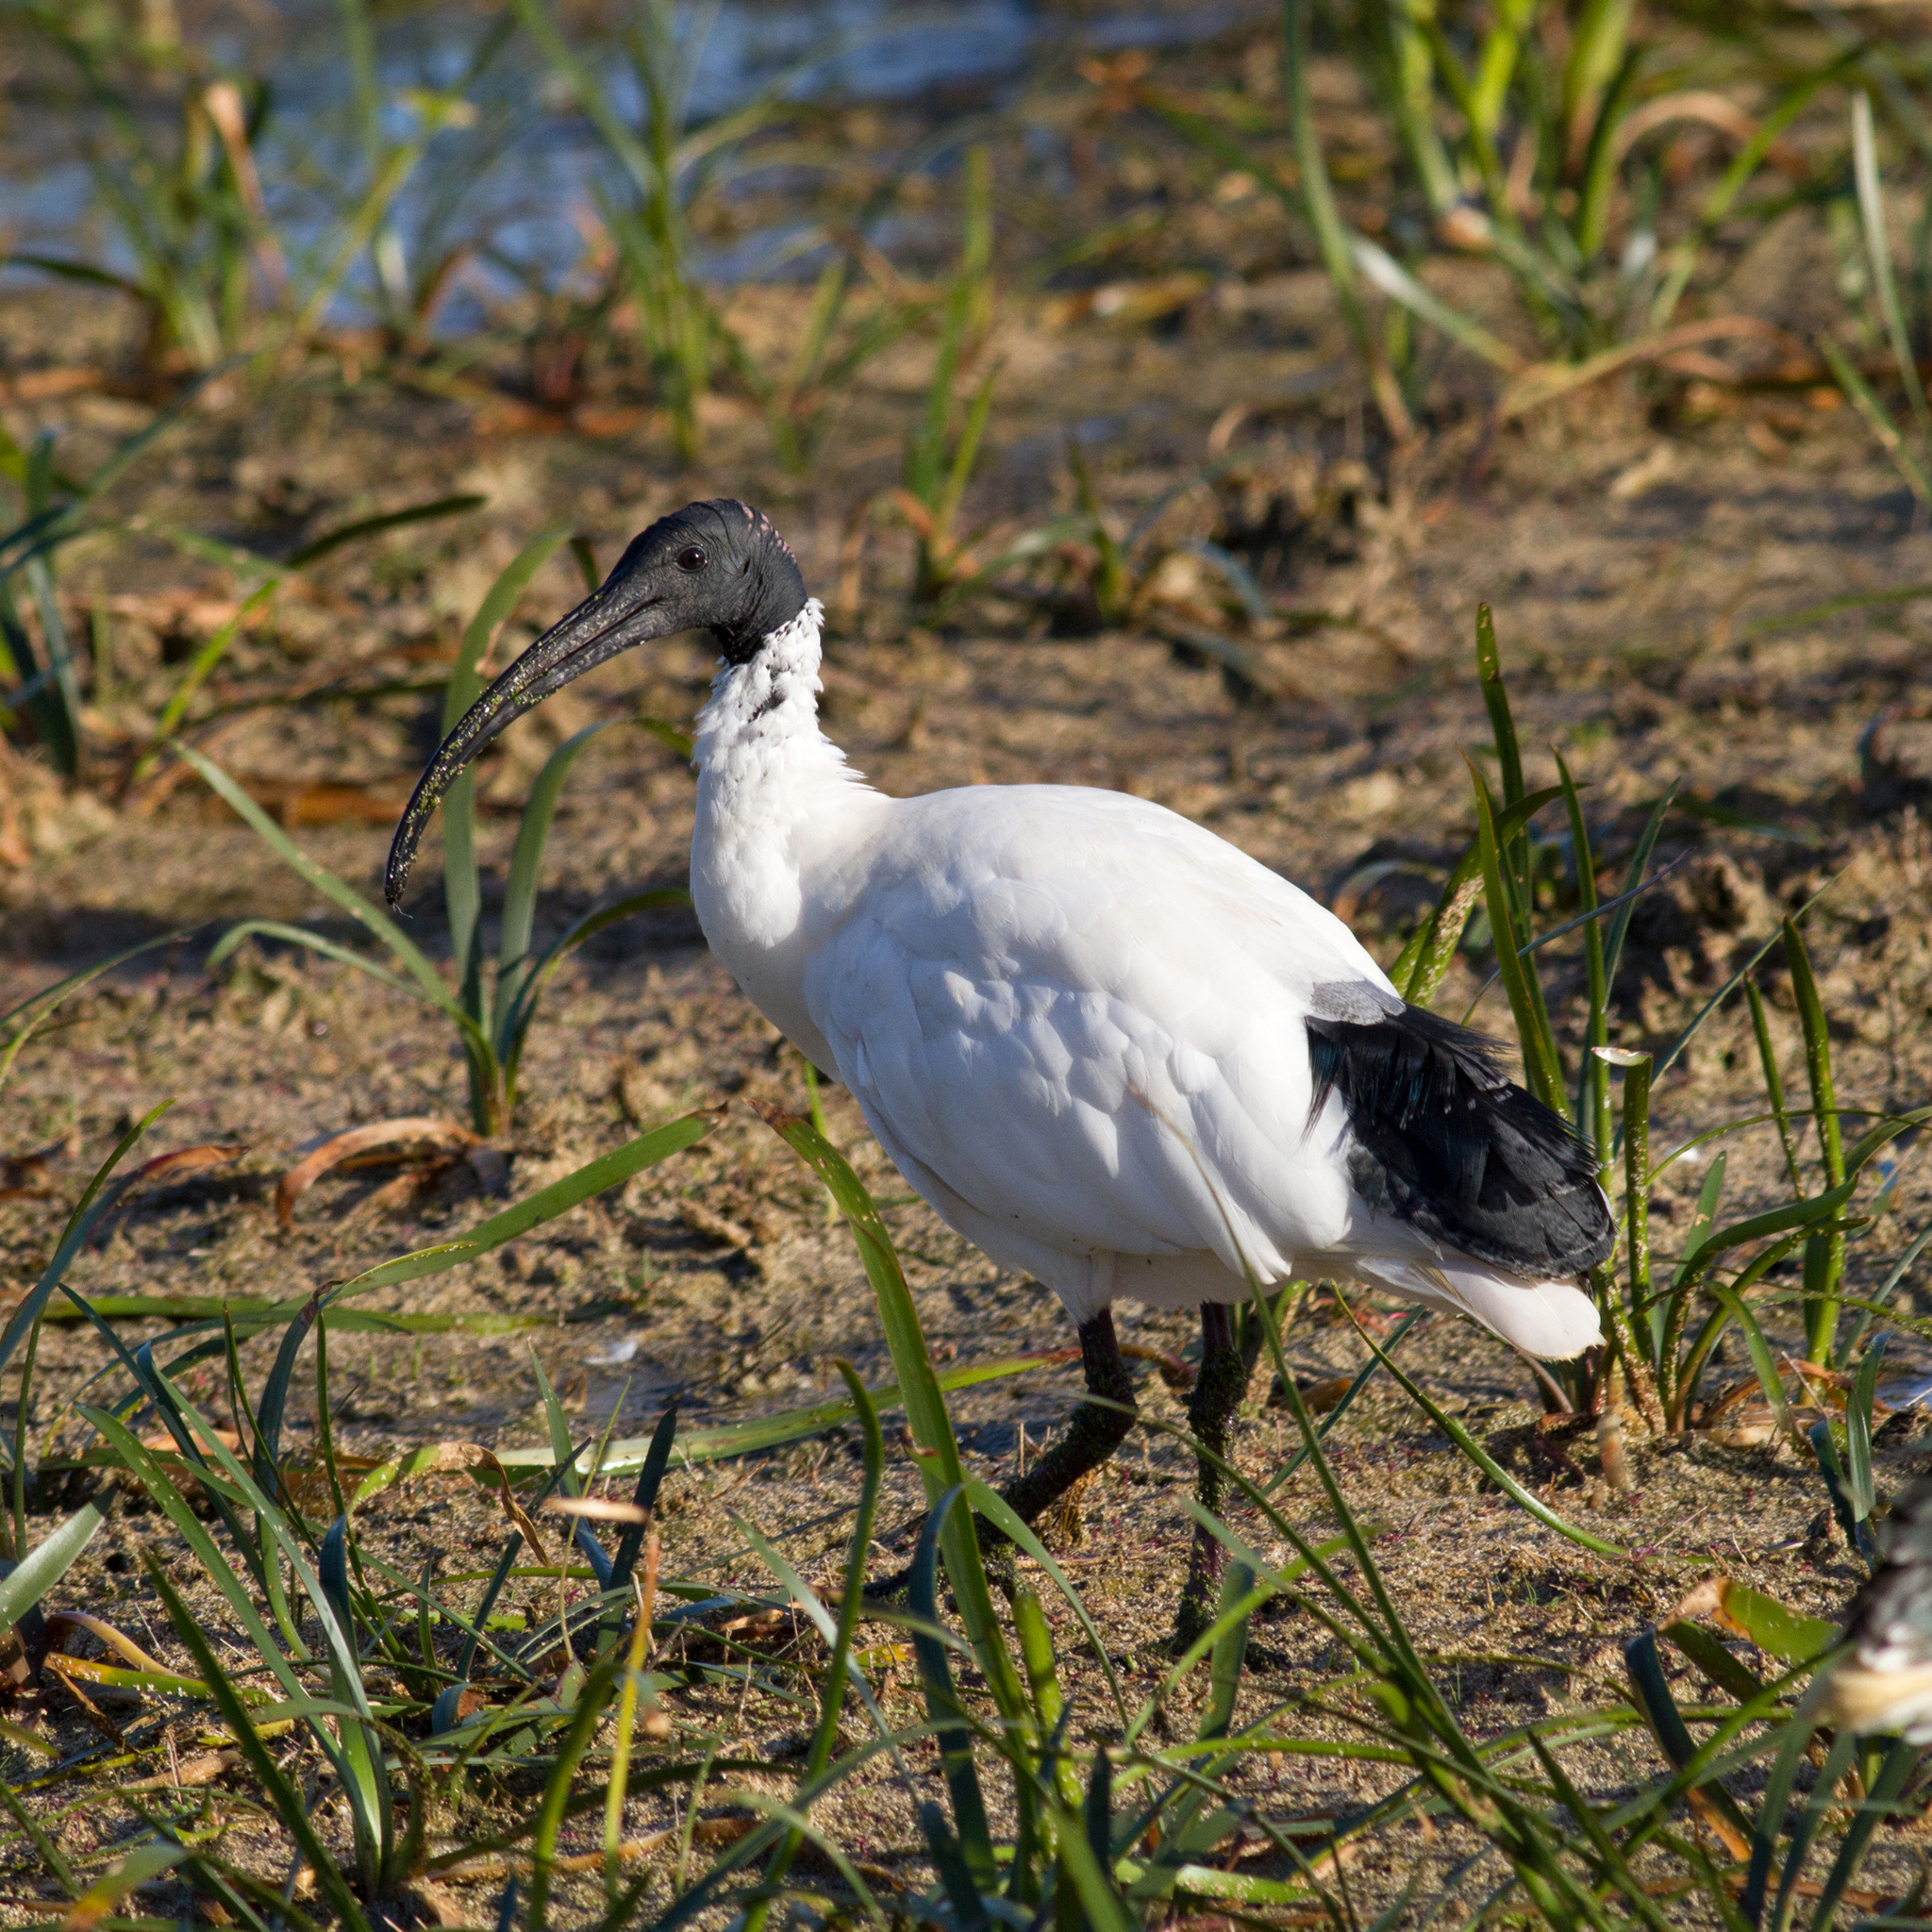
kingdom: Animalia
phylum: Chordata
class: Aves
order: Pelecaniformes
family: Threskiornithidae
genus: Threskiornis
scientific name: Threskiornis molucca
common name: Australian white ibis
